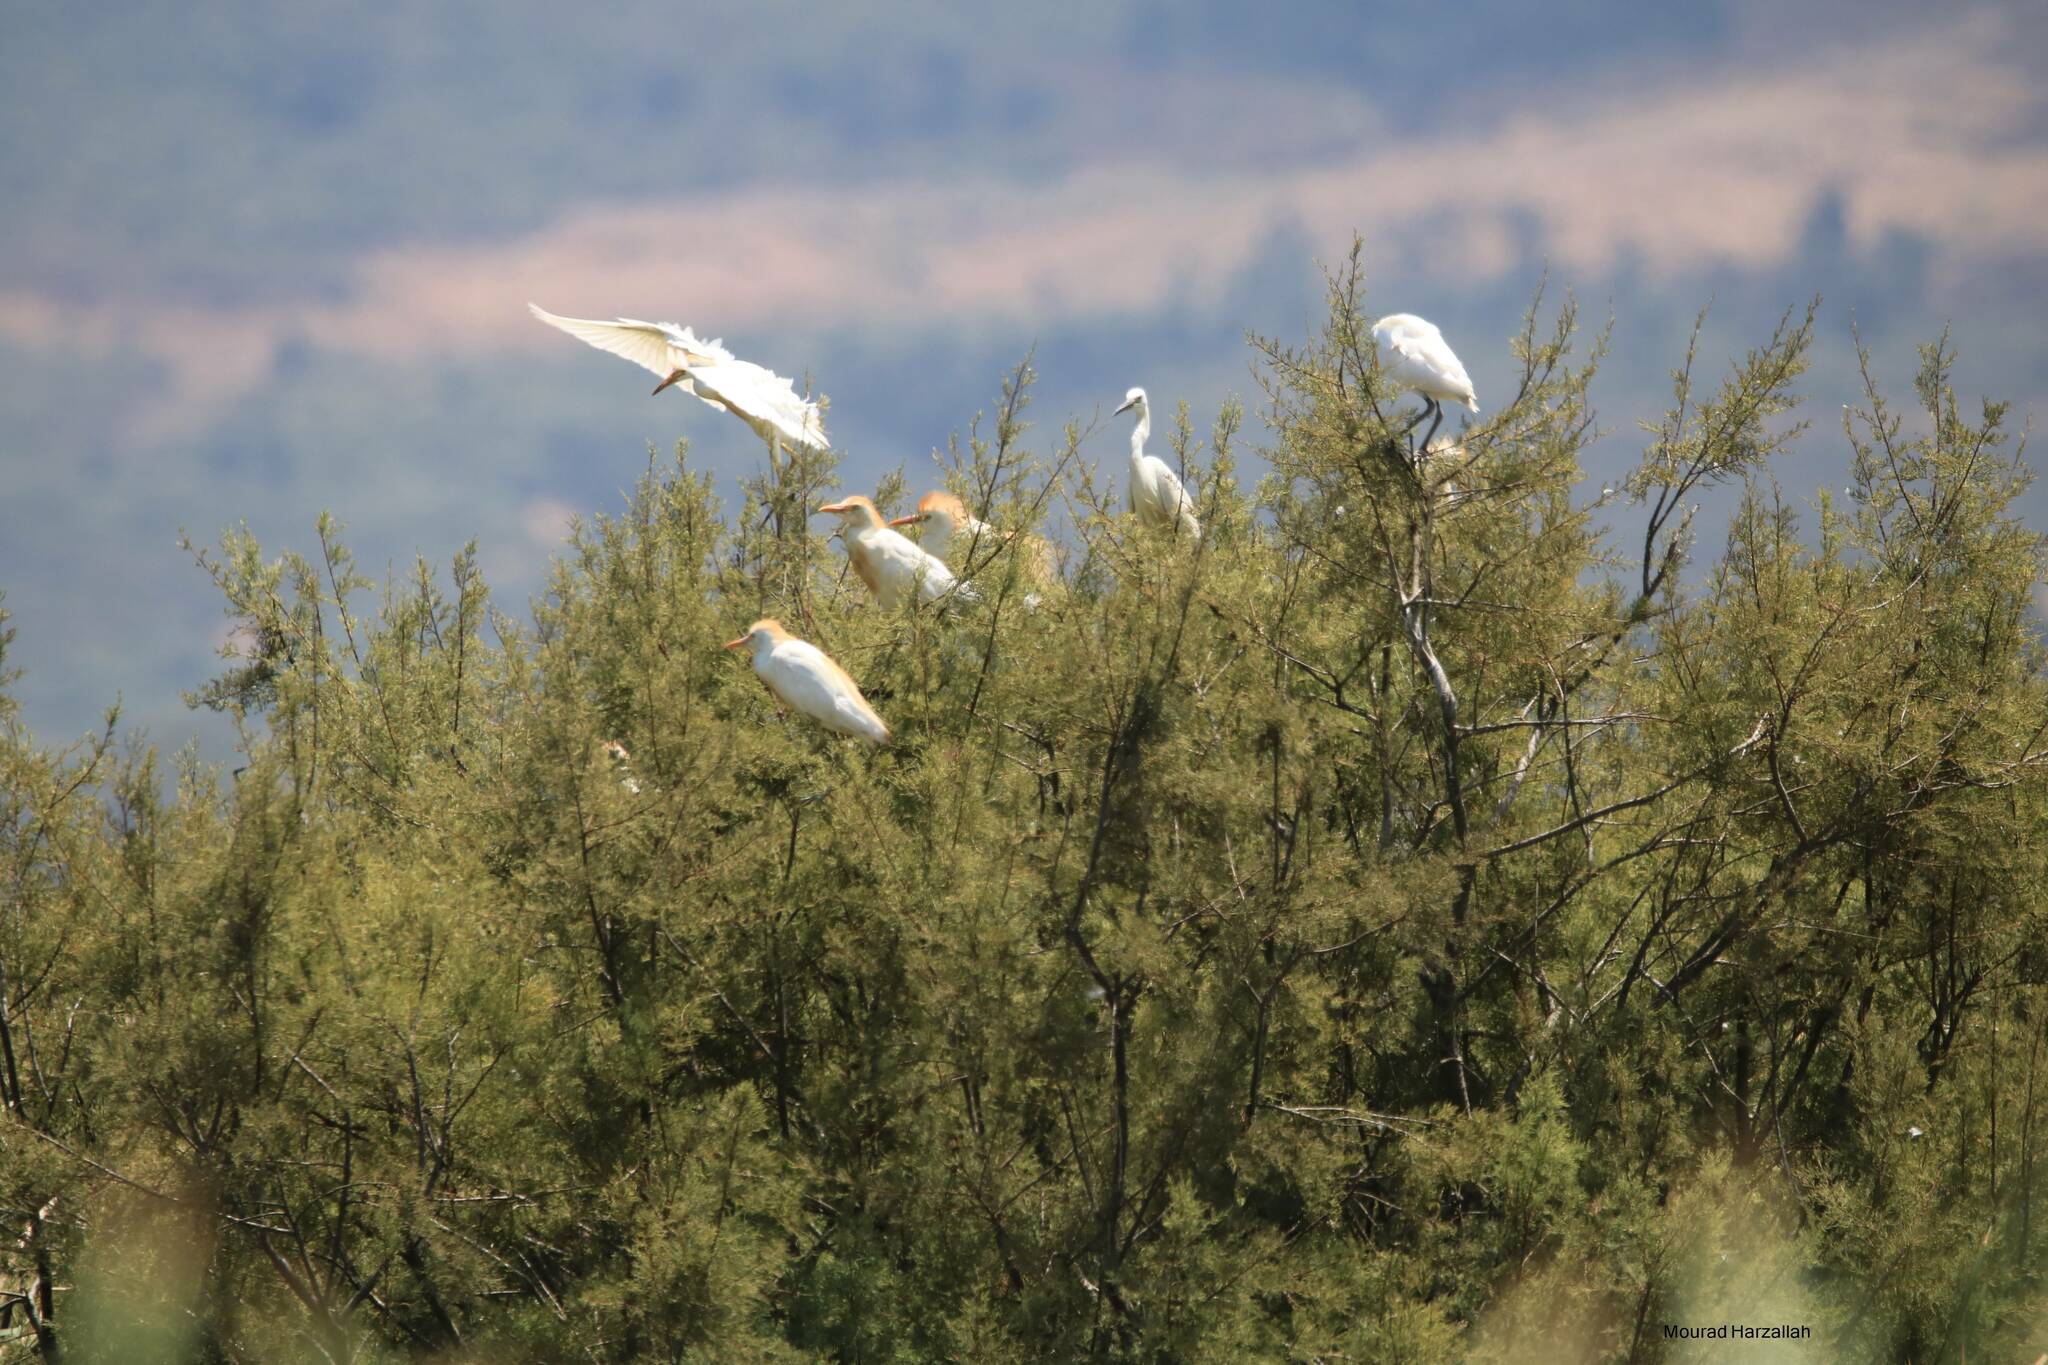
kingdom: Animalia
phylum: Chordata
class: Aves
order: Pelecaniformes
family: Ardeidae
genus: Bubulcus
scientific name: Bubulcus ibis
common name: Cattle egret
